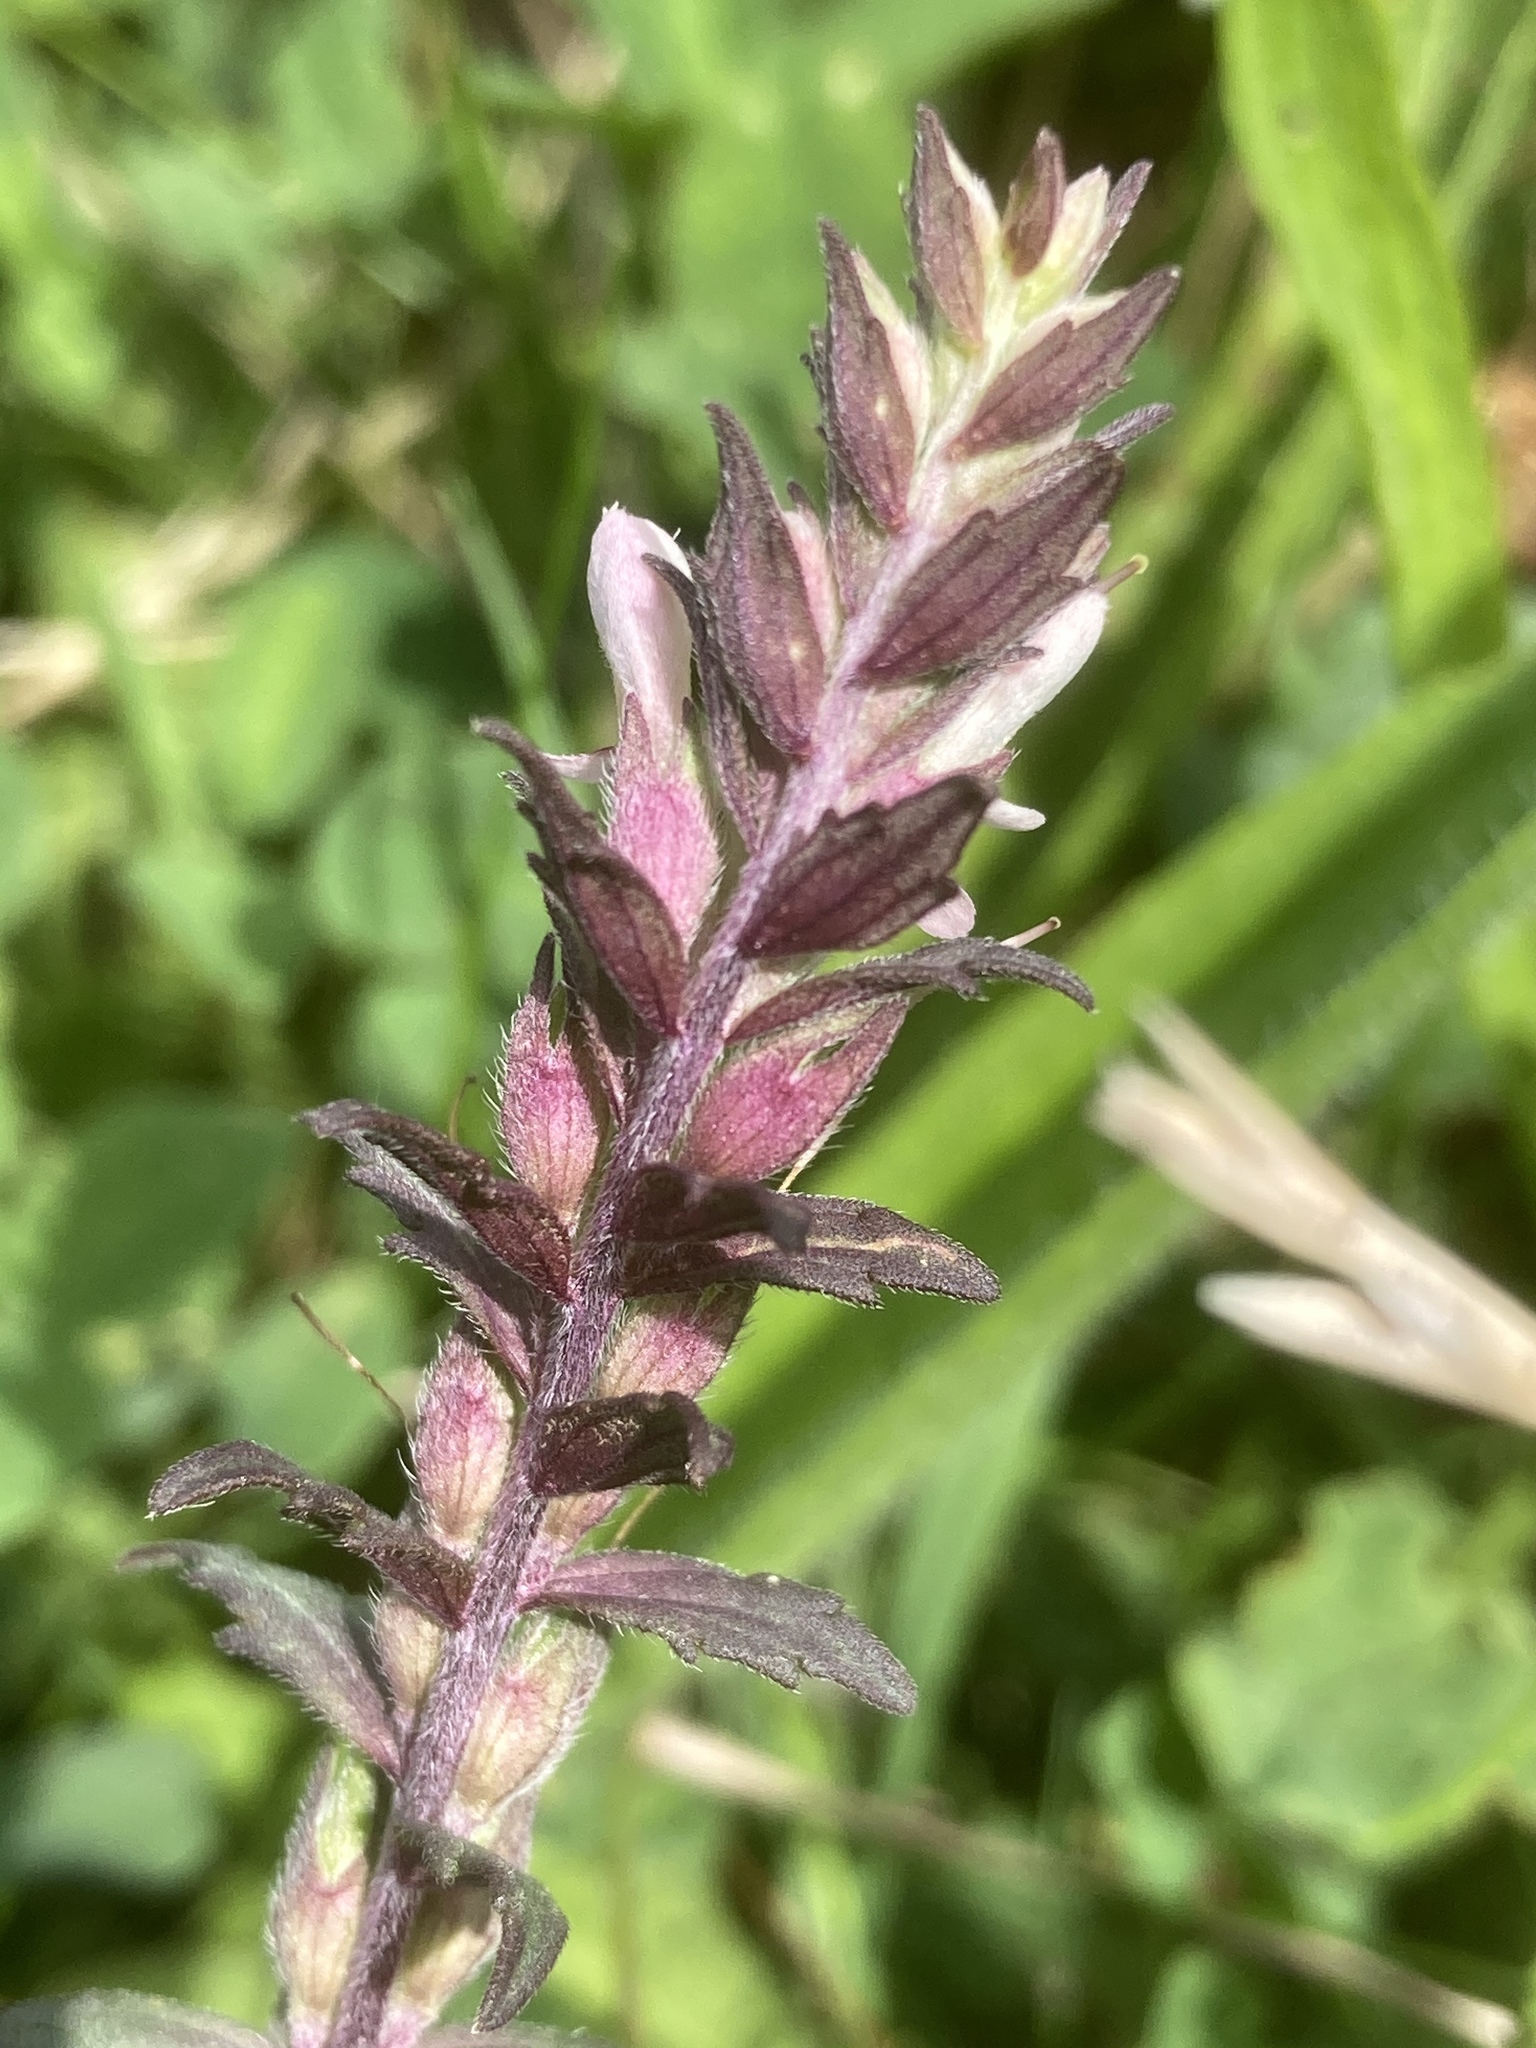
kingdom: Plantae
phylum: Tracheophyta
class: Magnoliopsida
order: Lamiales
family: Orobanchaceae
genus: Odontites
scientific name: Odontites vernus
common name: Red bartsia
